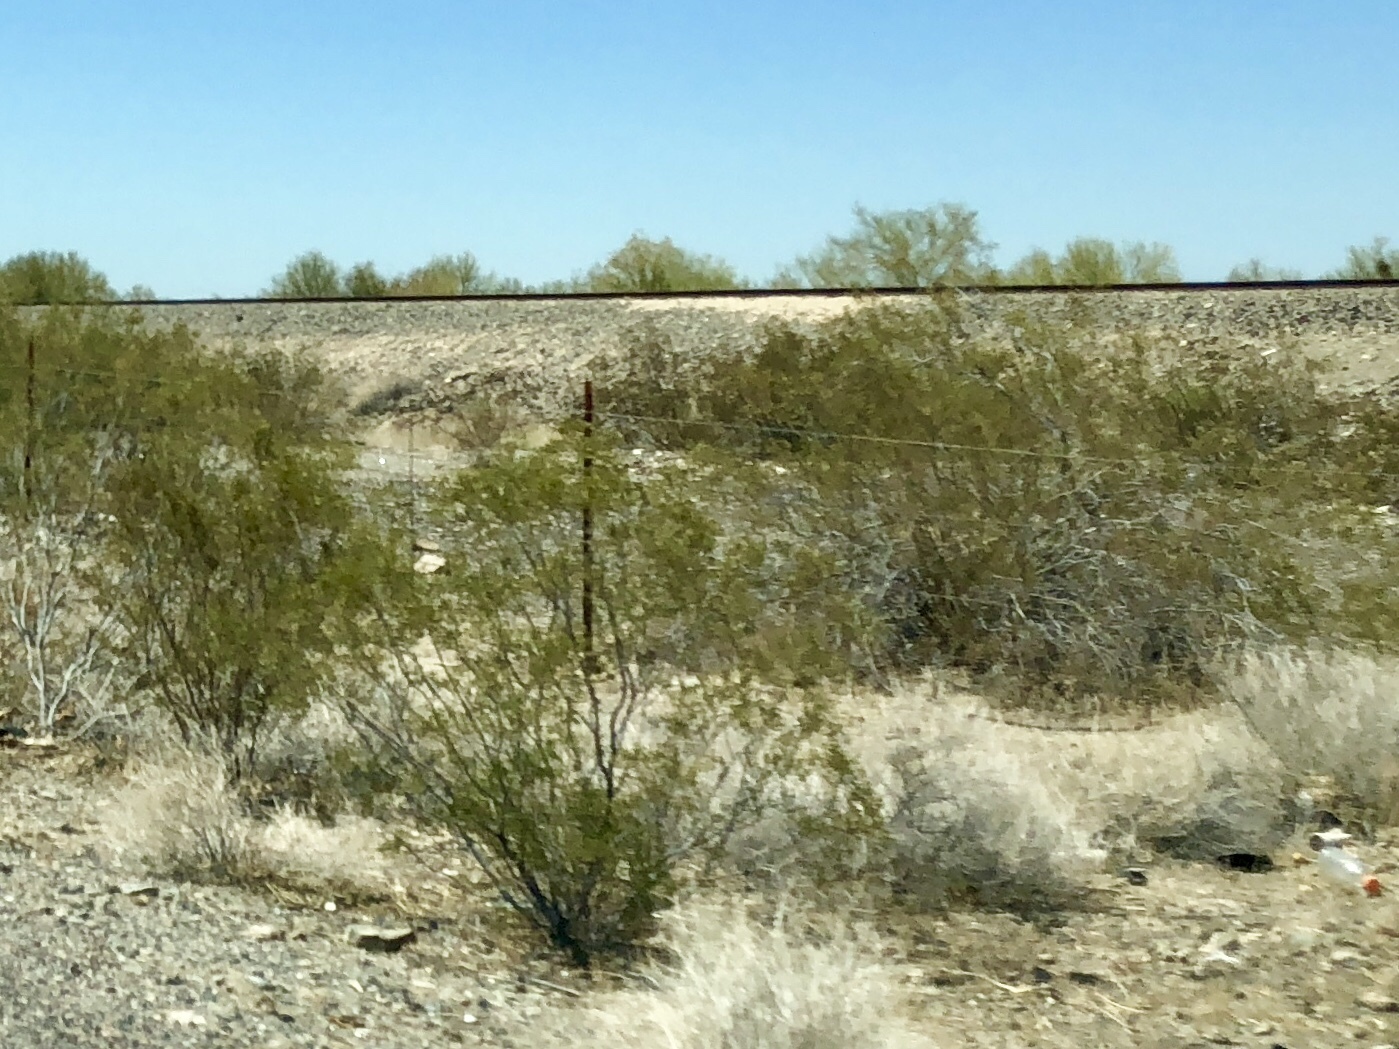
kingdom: Plantae
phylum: Tracheophyta
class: Magnoliopsida
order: Zygophyllales
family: Zygophyllaceae
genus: Larrea
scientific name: Larrea tridentata
